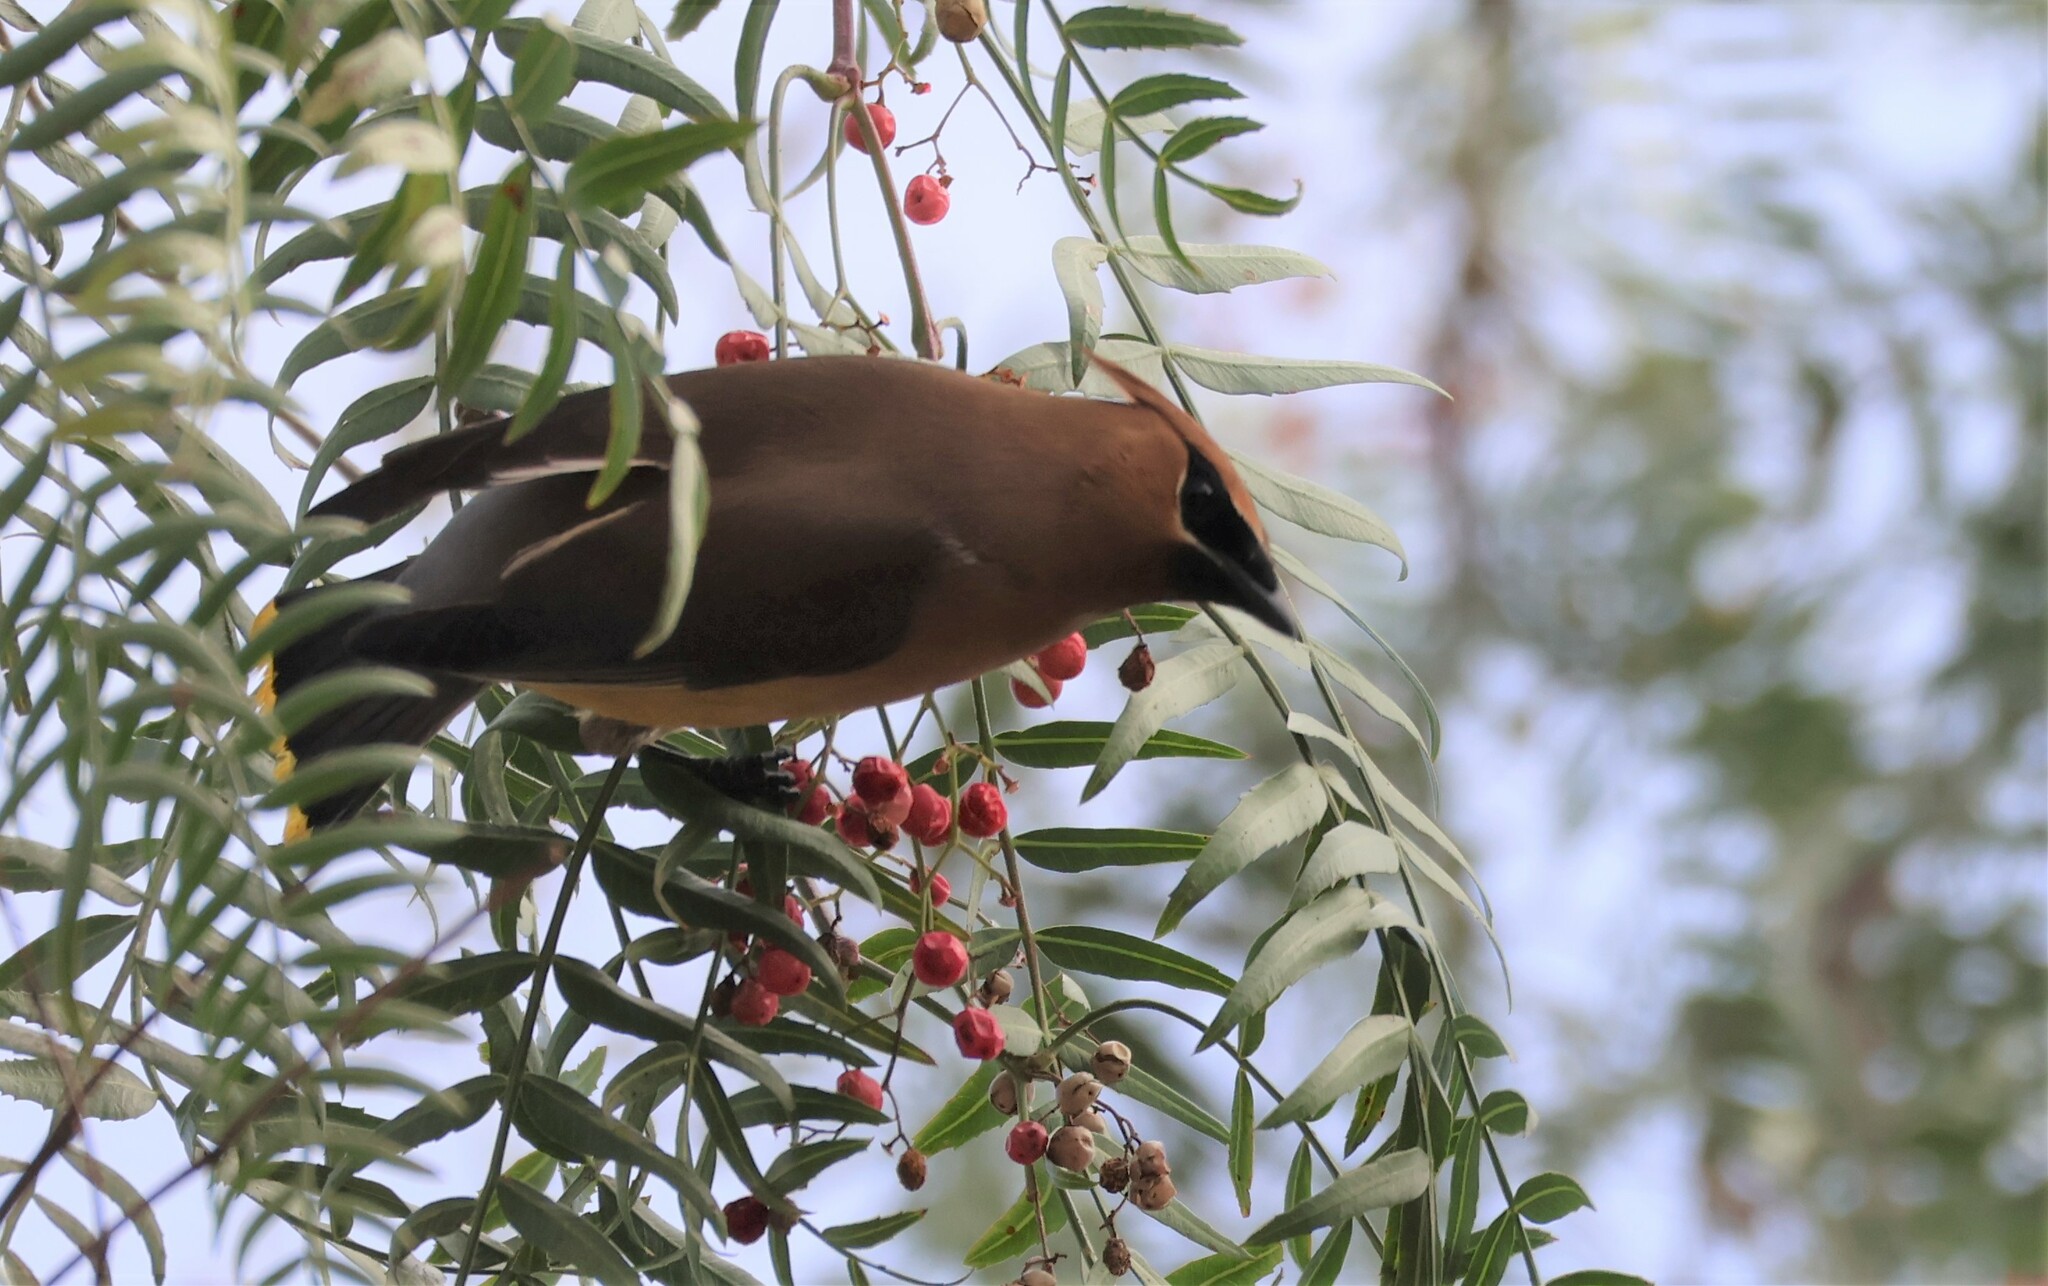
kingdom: Animalia
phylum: Chordata
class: Aves
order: Passeriformes
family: Bombycillidae
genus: Bombycilla
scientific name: Bombycilla cedrorum
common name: Cedar waxwing
